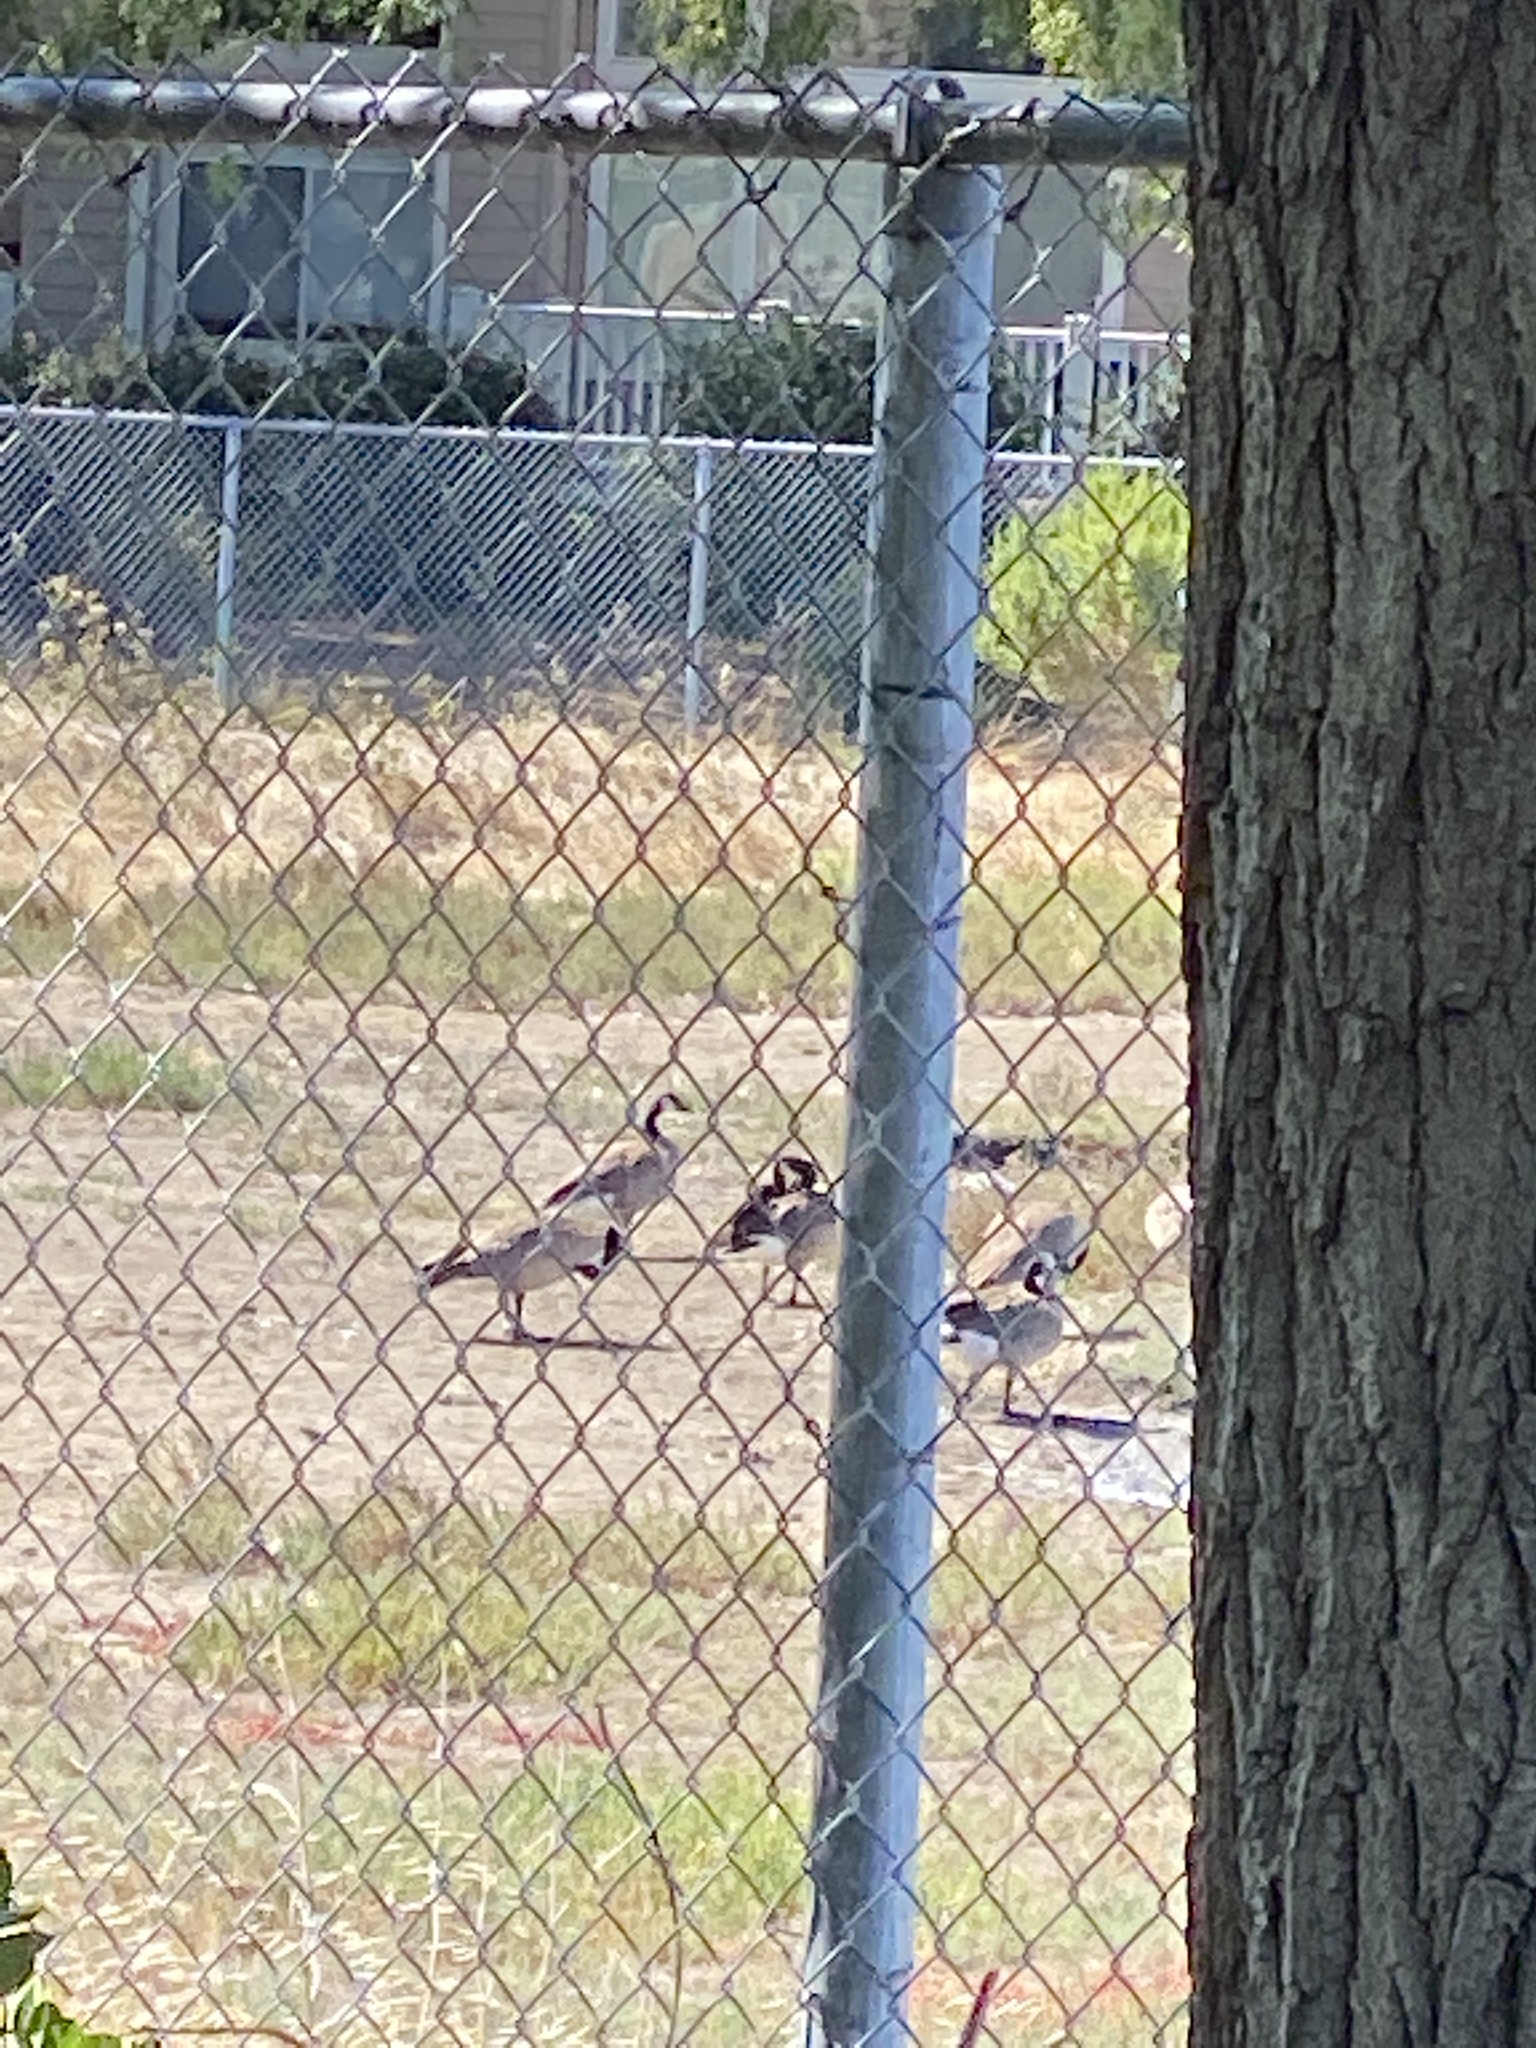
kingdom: Animalia
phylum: Chordata
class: Aves
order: Anseriformes
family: Anatidae
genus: Branta
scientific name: Branta canadensis
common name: Canada goose
